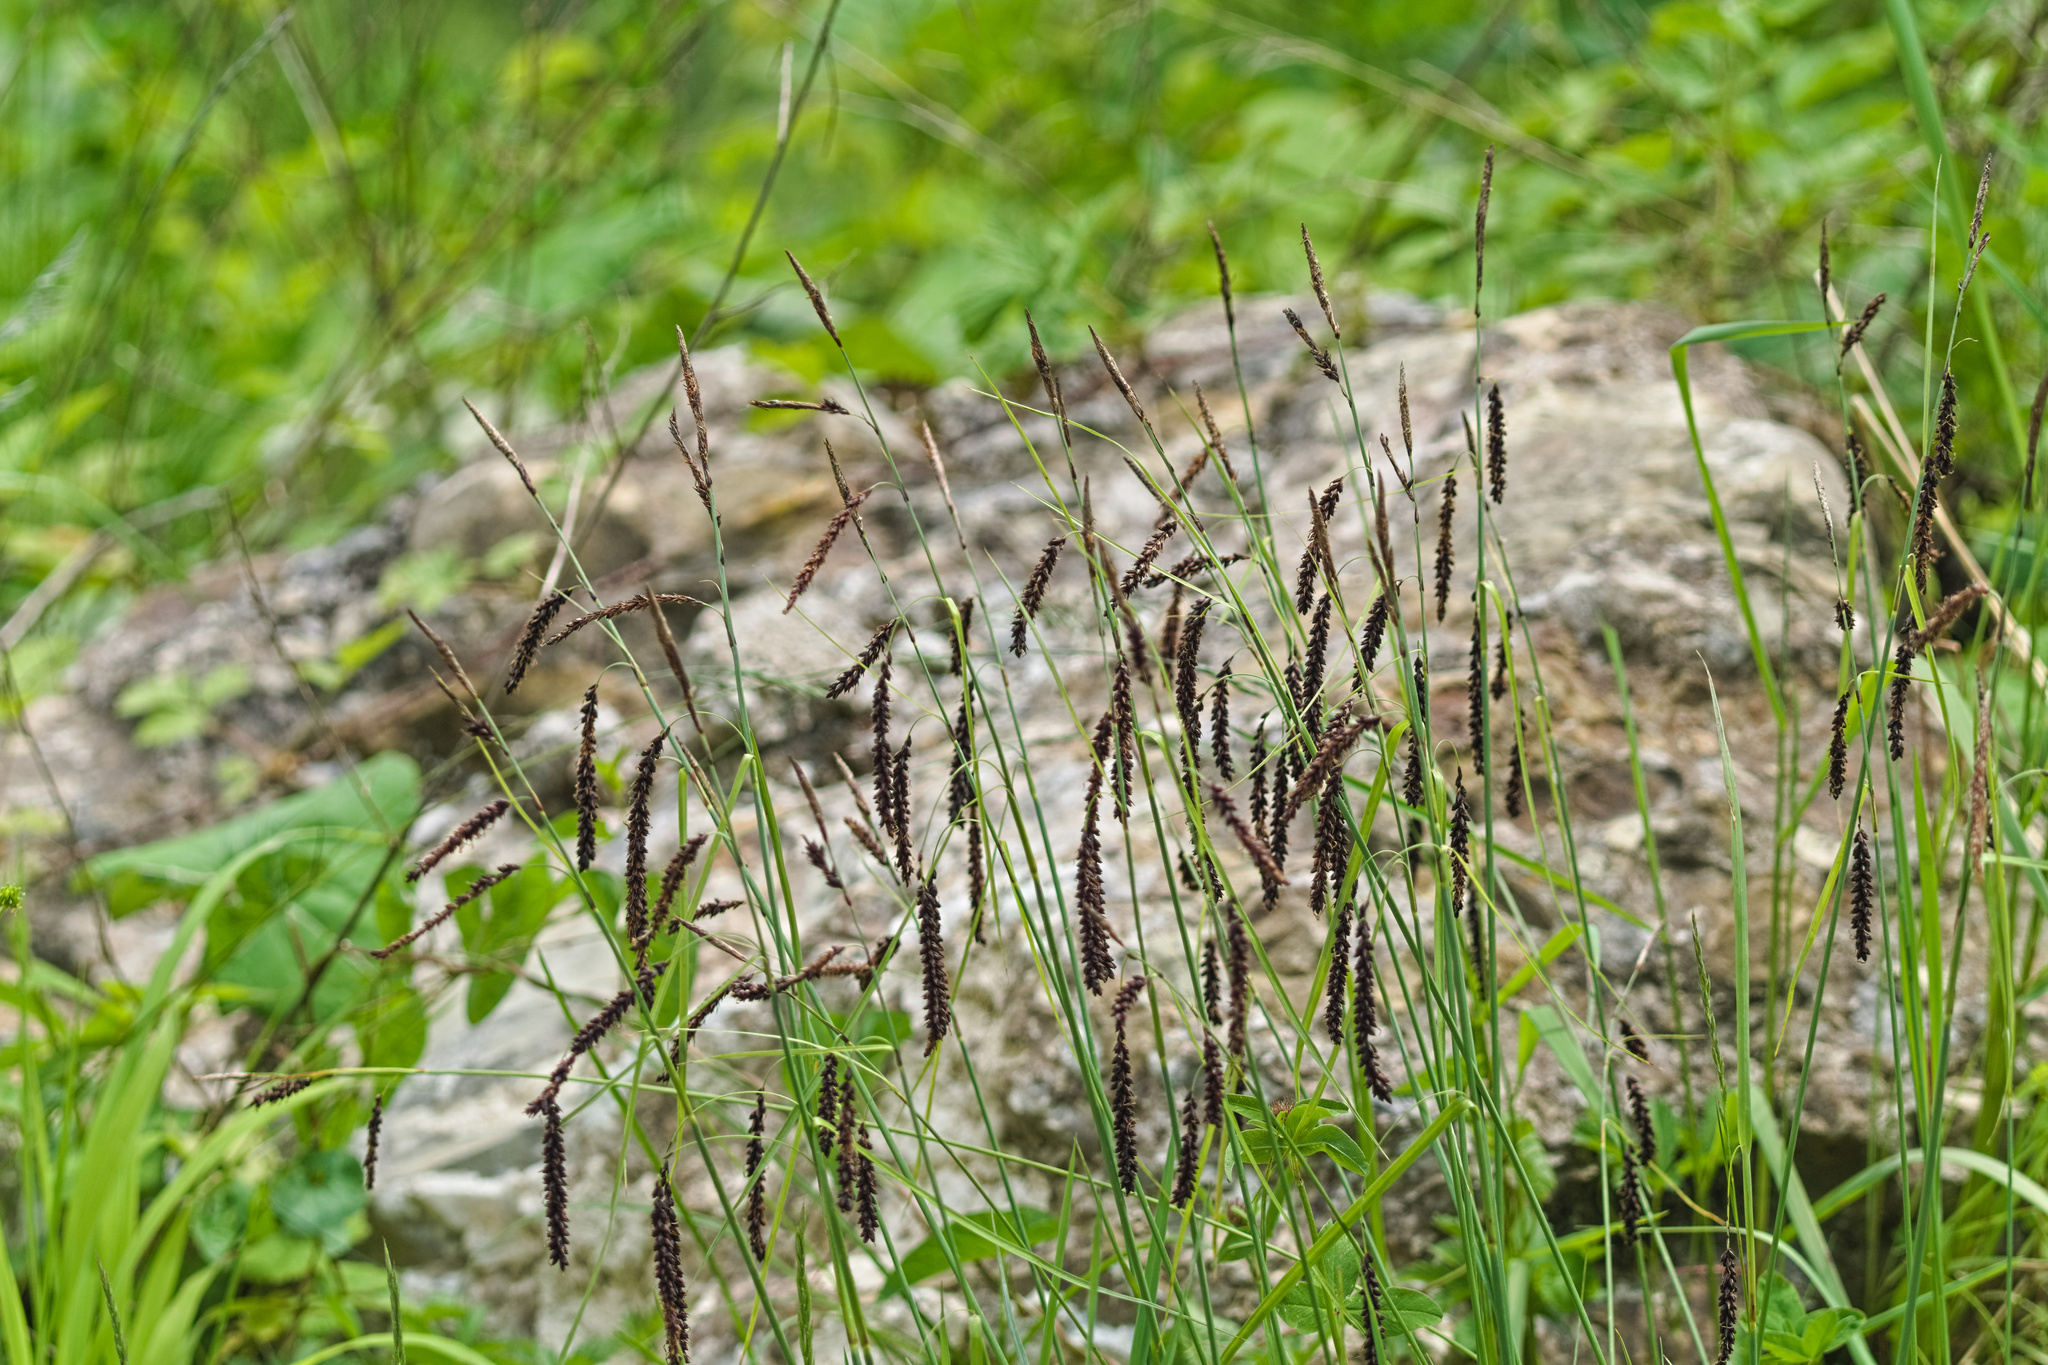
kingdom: Plantae
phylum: Tracheophyta
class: Liliopsida
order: Poales
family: Cyperaceae
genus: Carex
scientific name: Carex flacca
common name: Glaucous sedge
